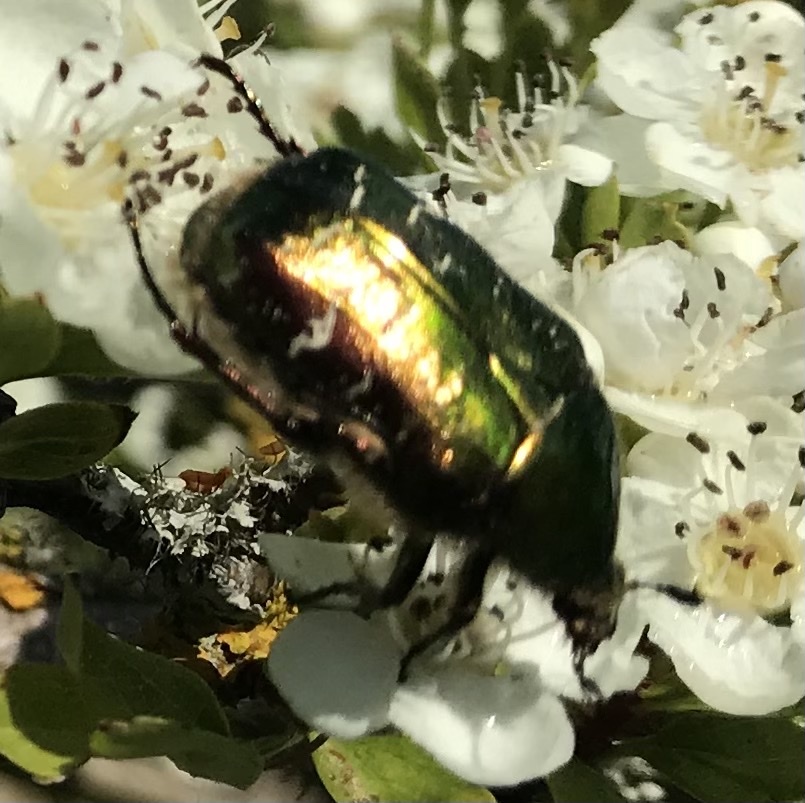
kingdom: Animalia
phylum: Arthropoda
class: Insecta
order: Coleoptera
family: Scarabaeidae
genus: Cetonia
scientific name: Cetonia aurata
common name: Rose chafer
